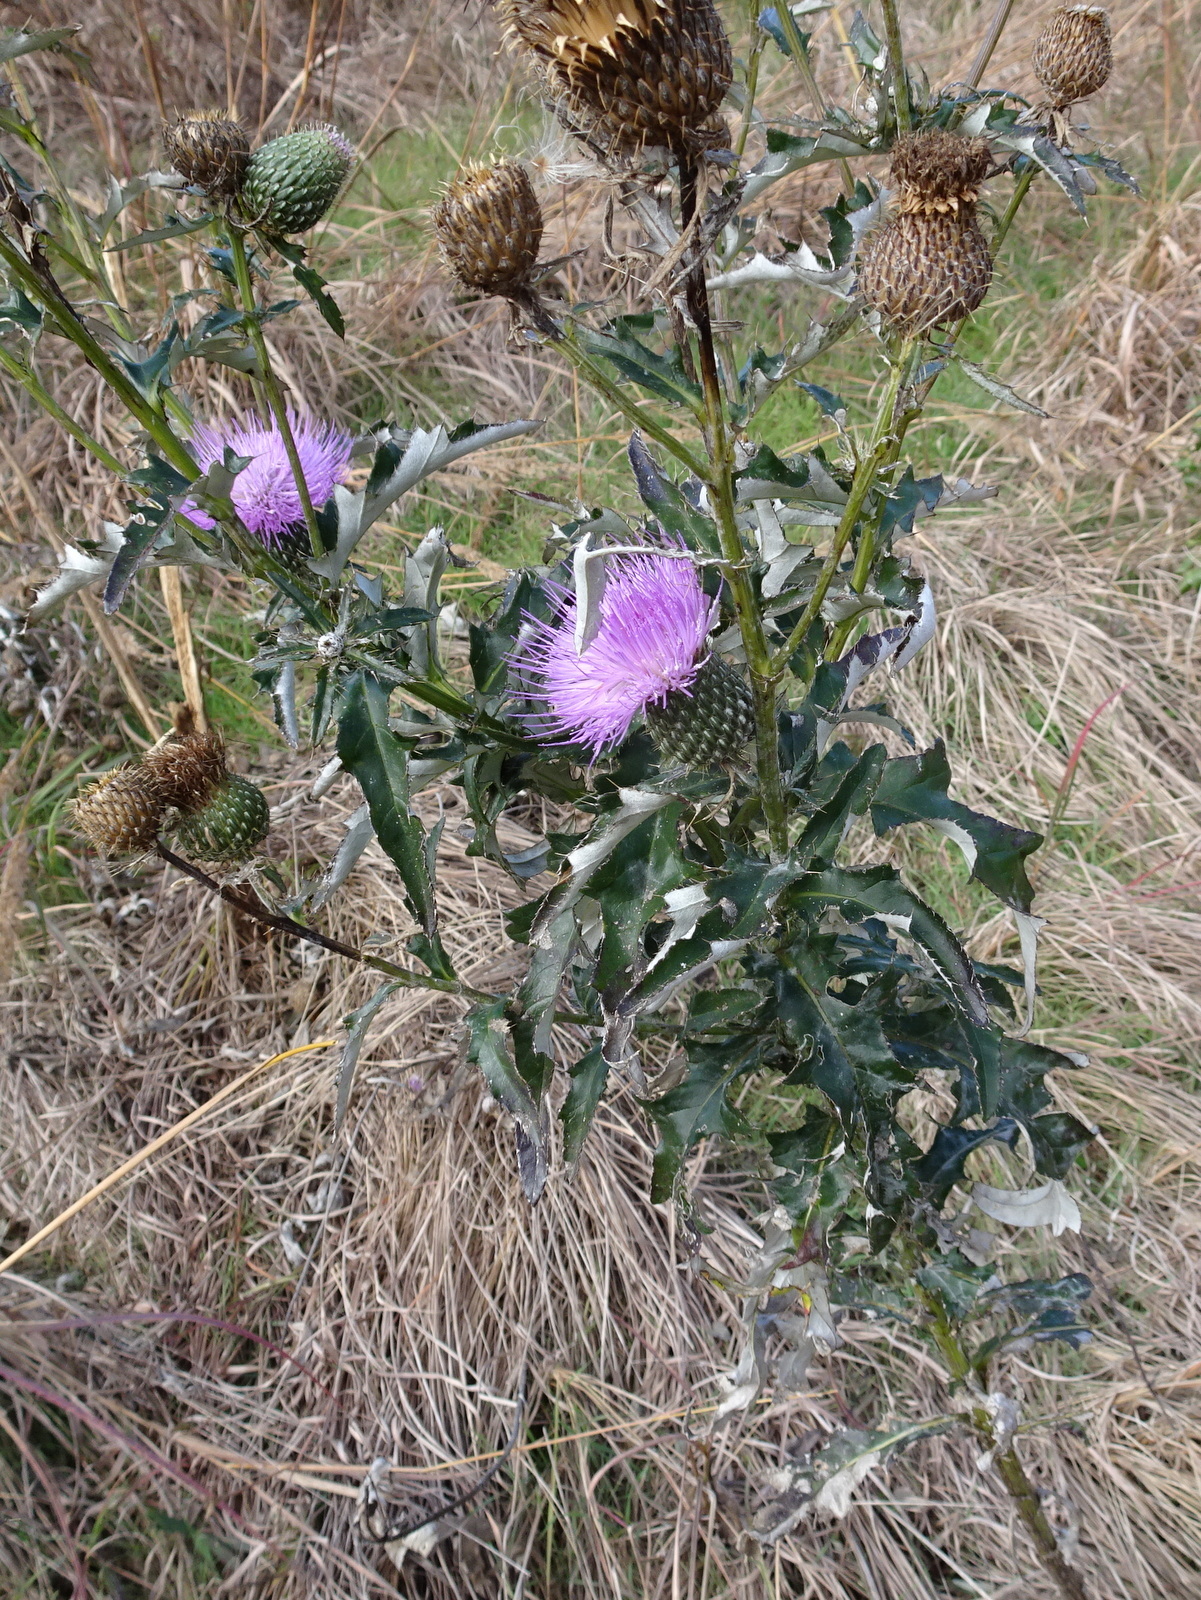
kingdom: Plantae
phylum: Tracheophyta
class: Magnoliopsida
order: Asterales
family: Asteraceae
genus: Cirsium
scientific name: Cirsium altissimum
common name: Roadside thistle
